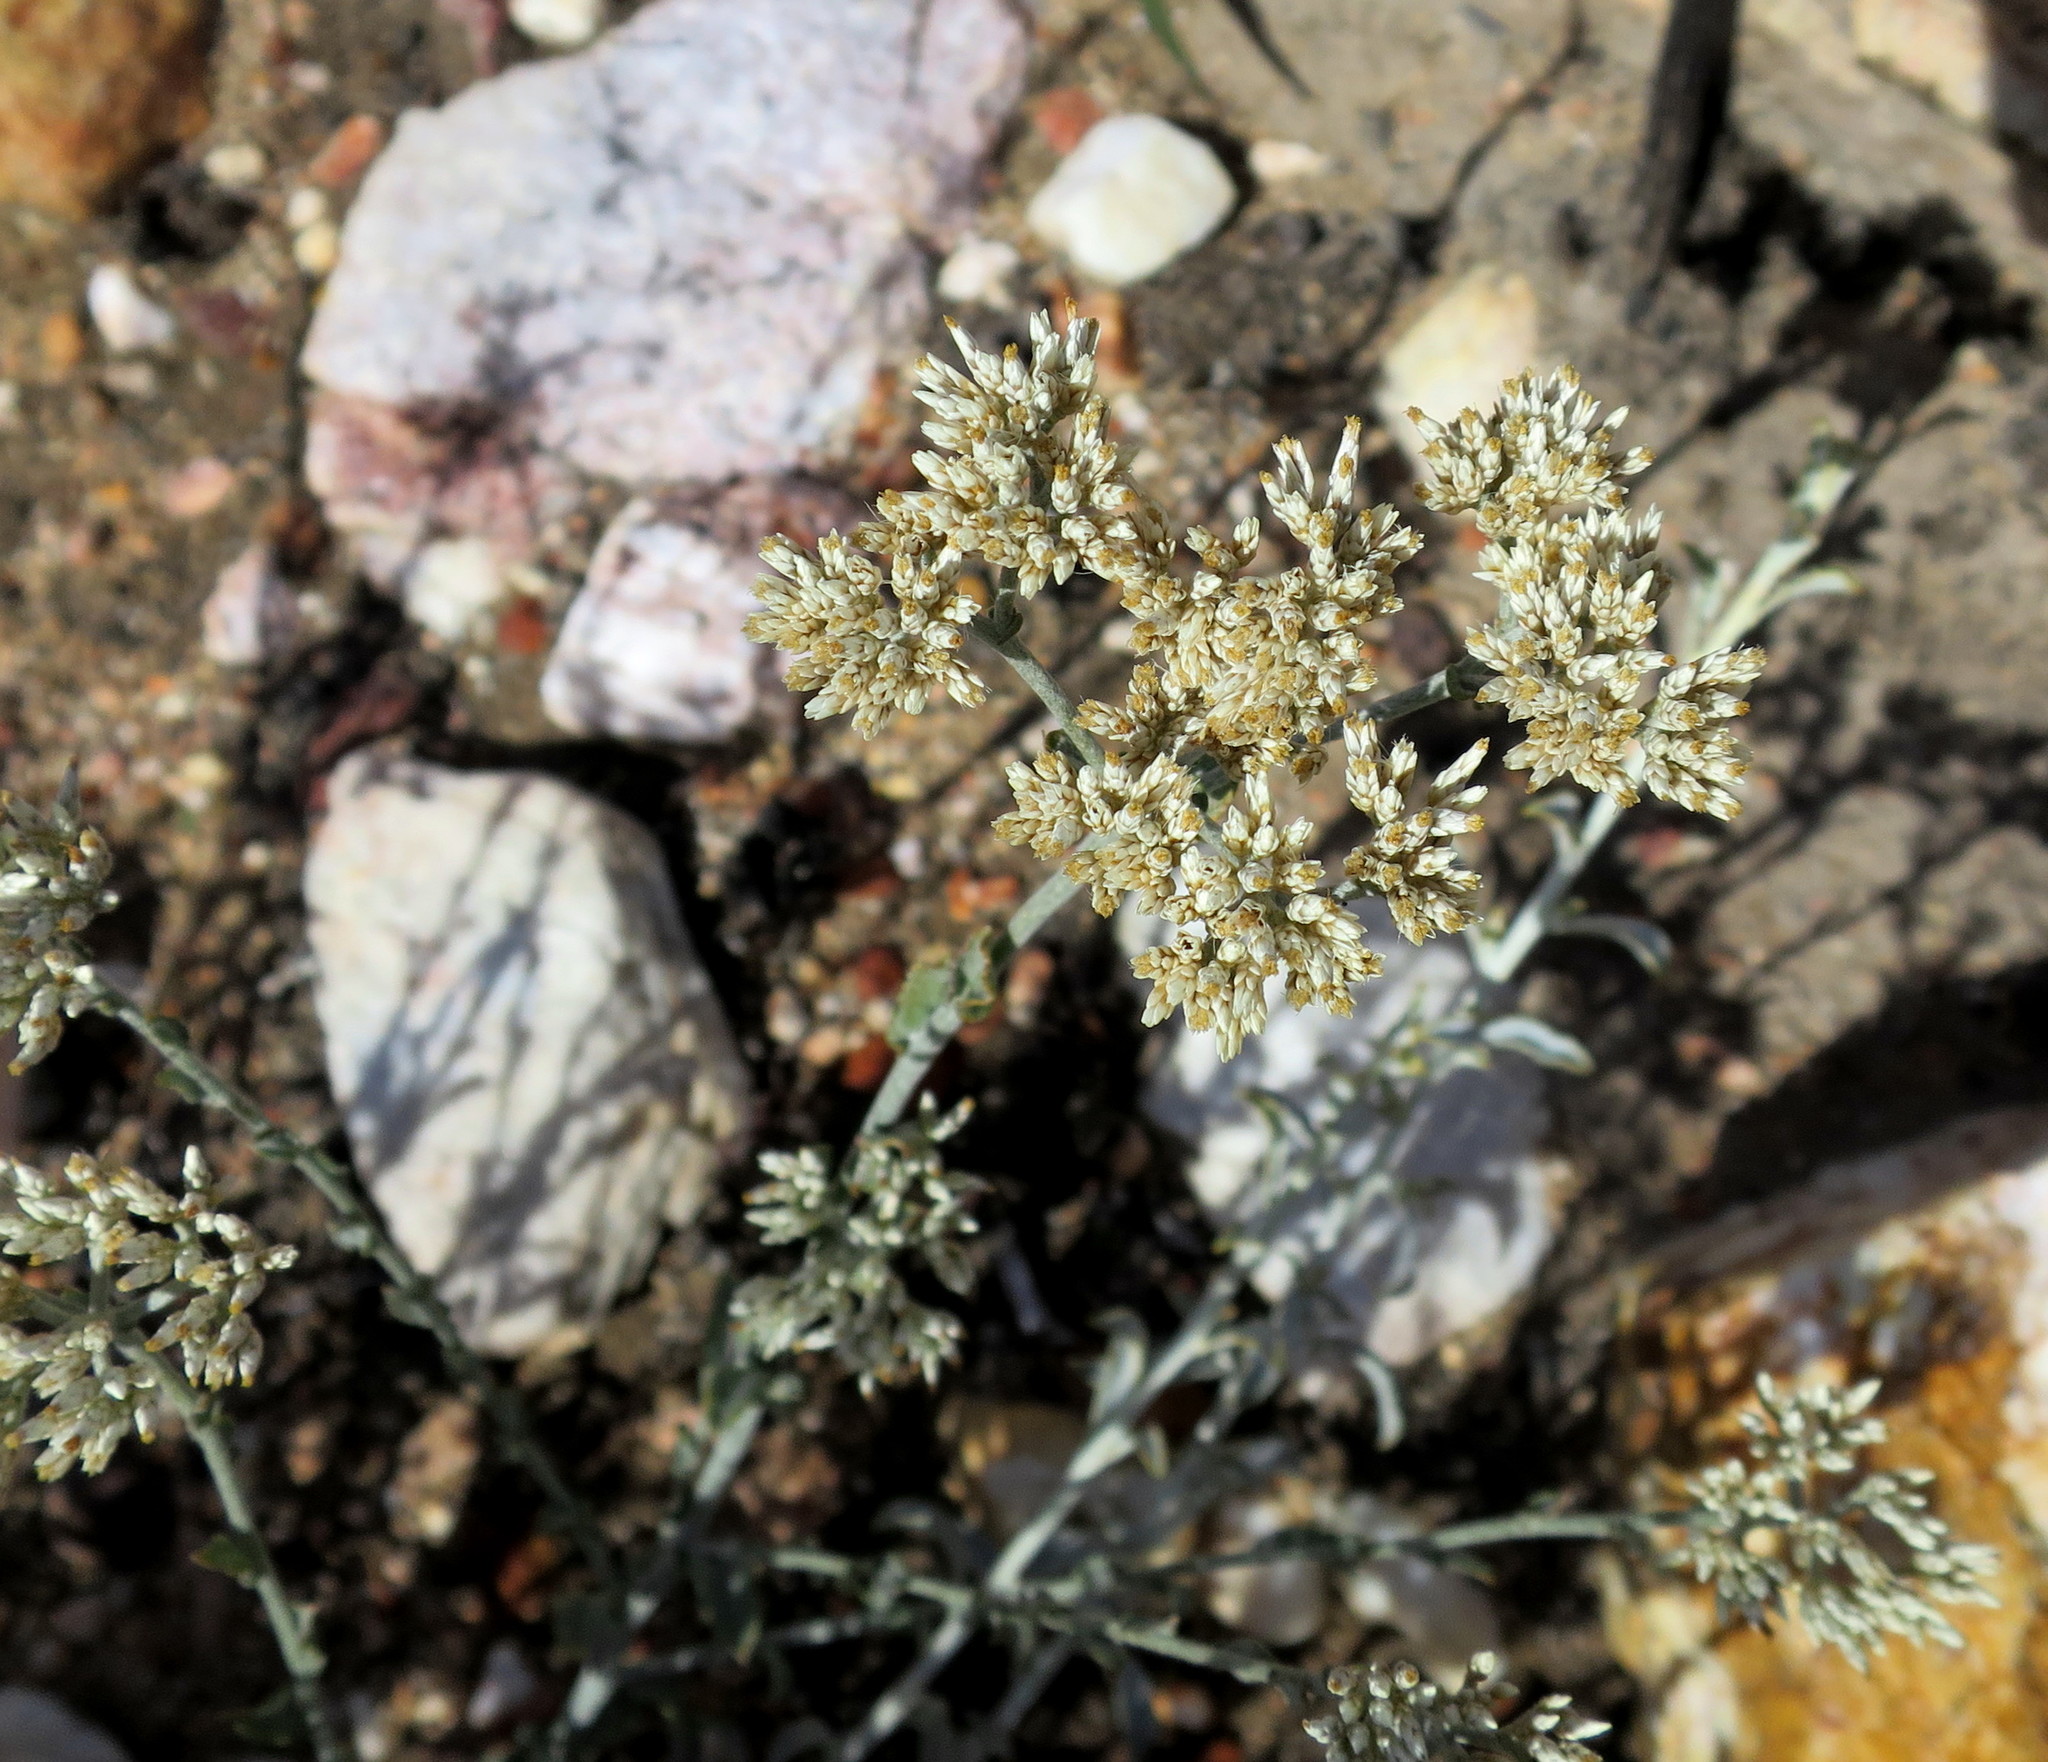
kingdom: Plantae
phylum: Tracheophyta
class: Magnoliopsida
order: Asterales
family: Asteraceae
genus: Helichrysum
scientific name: Helichrysum zeyheri
